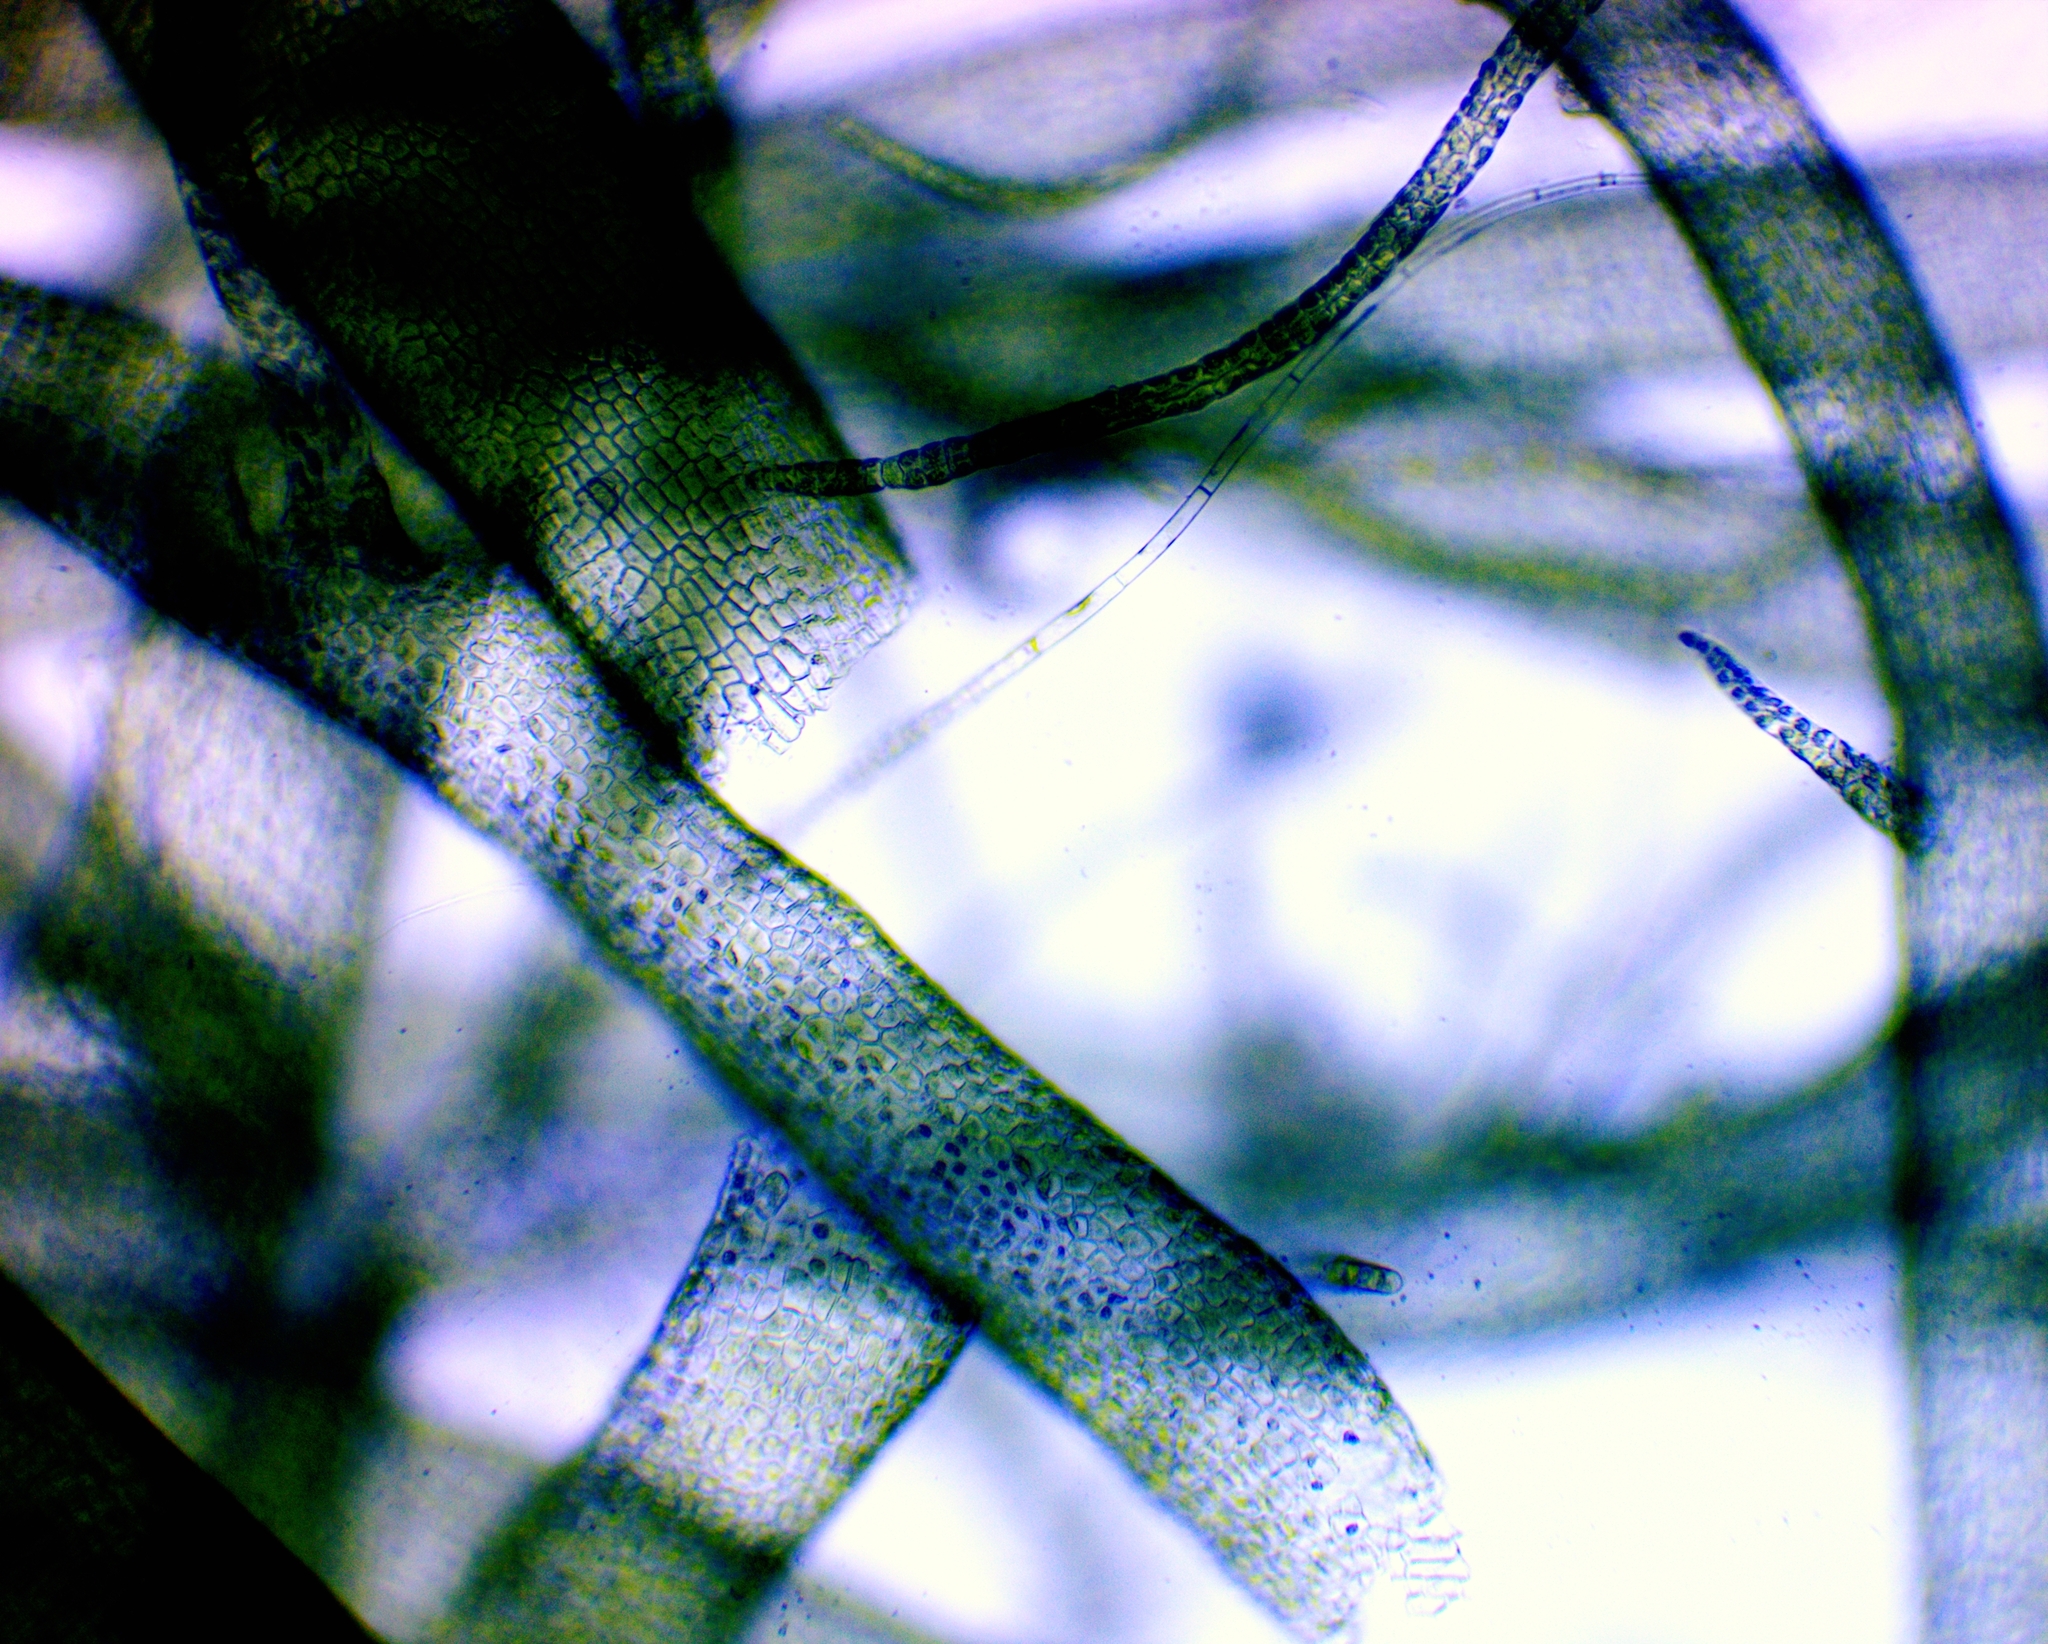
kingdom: Plantae
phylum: Chlorophyta
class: Ulvophyceae
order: Ulvales
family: Ulvaceae
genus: Ulva
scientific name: Ulva
